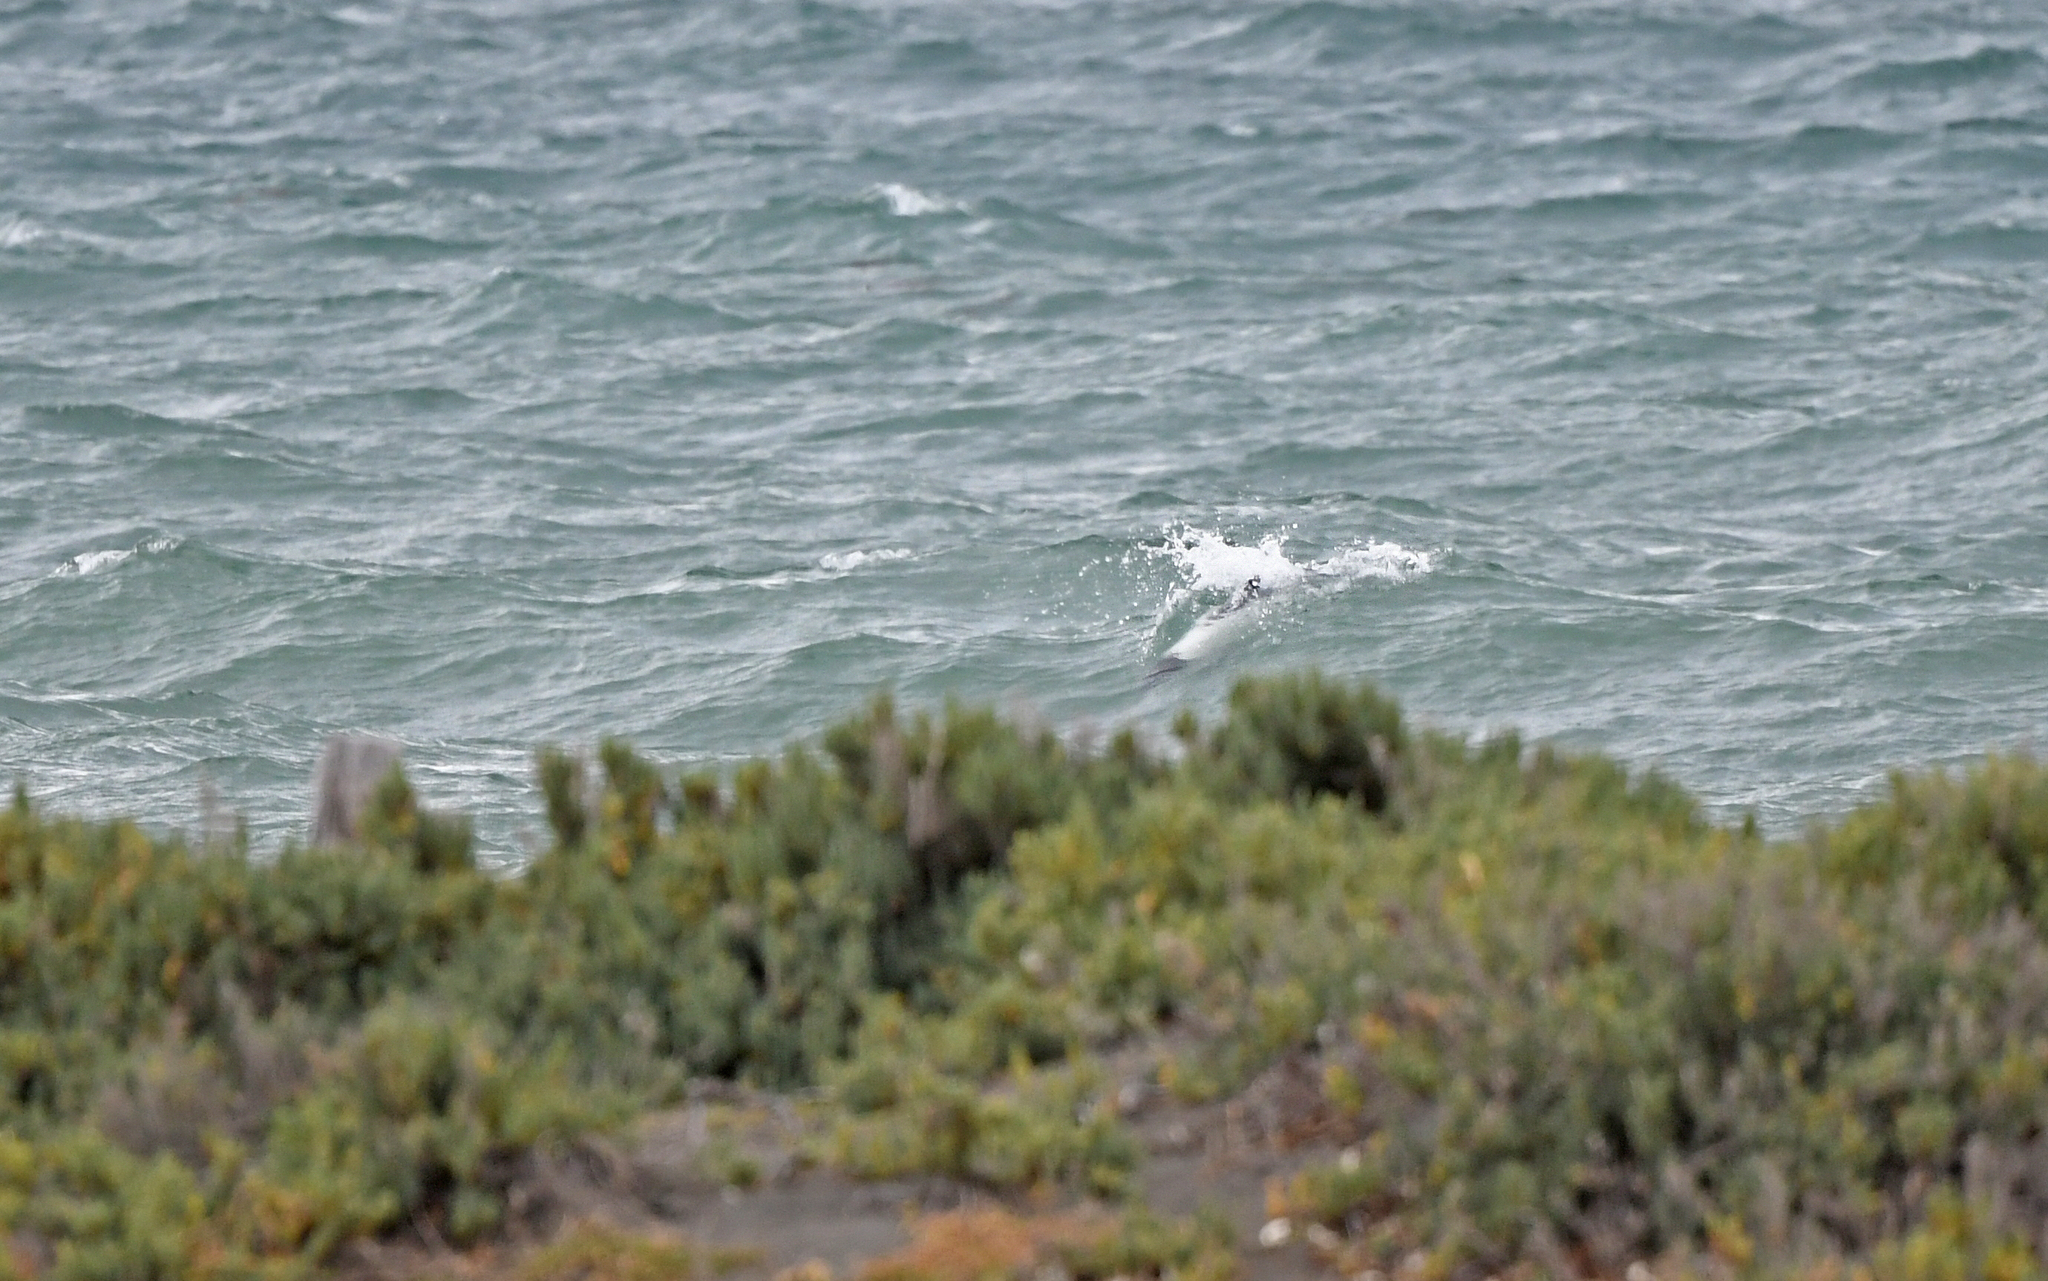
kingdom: Animalia
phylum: Chordata
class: Mammalia
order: Cetacea
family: Delphinidae
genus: Cephalorhynchus
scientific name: Cephalorhynchus commersonii
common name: Commerson's dolphin
